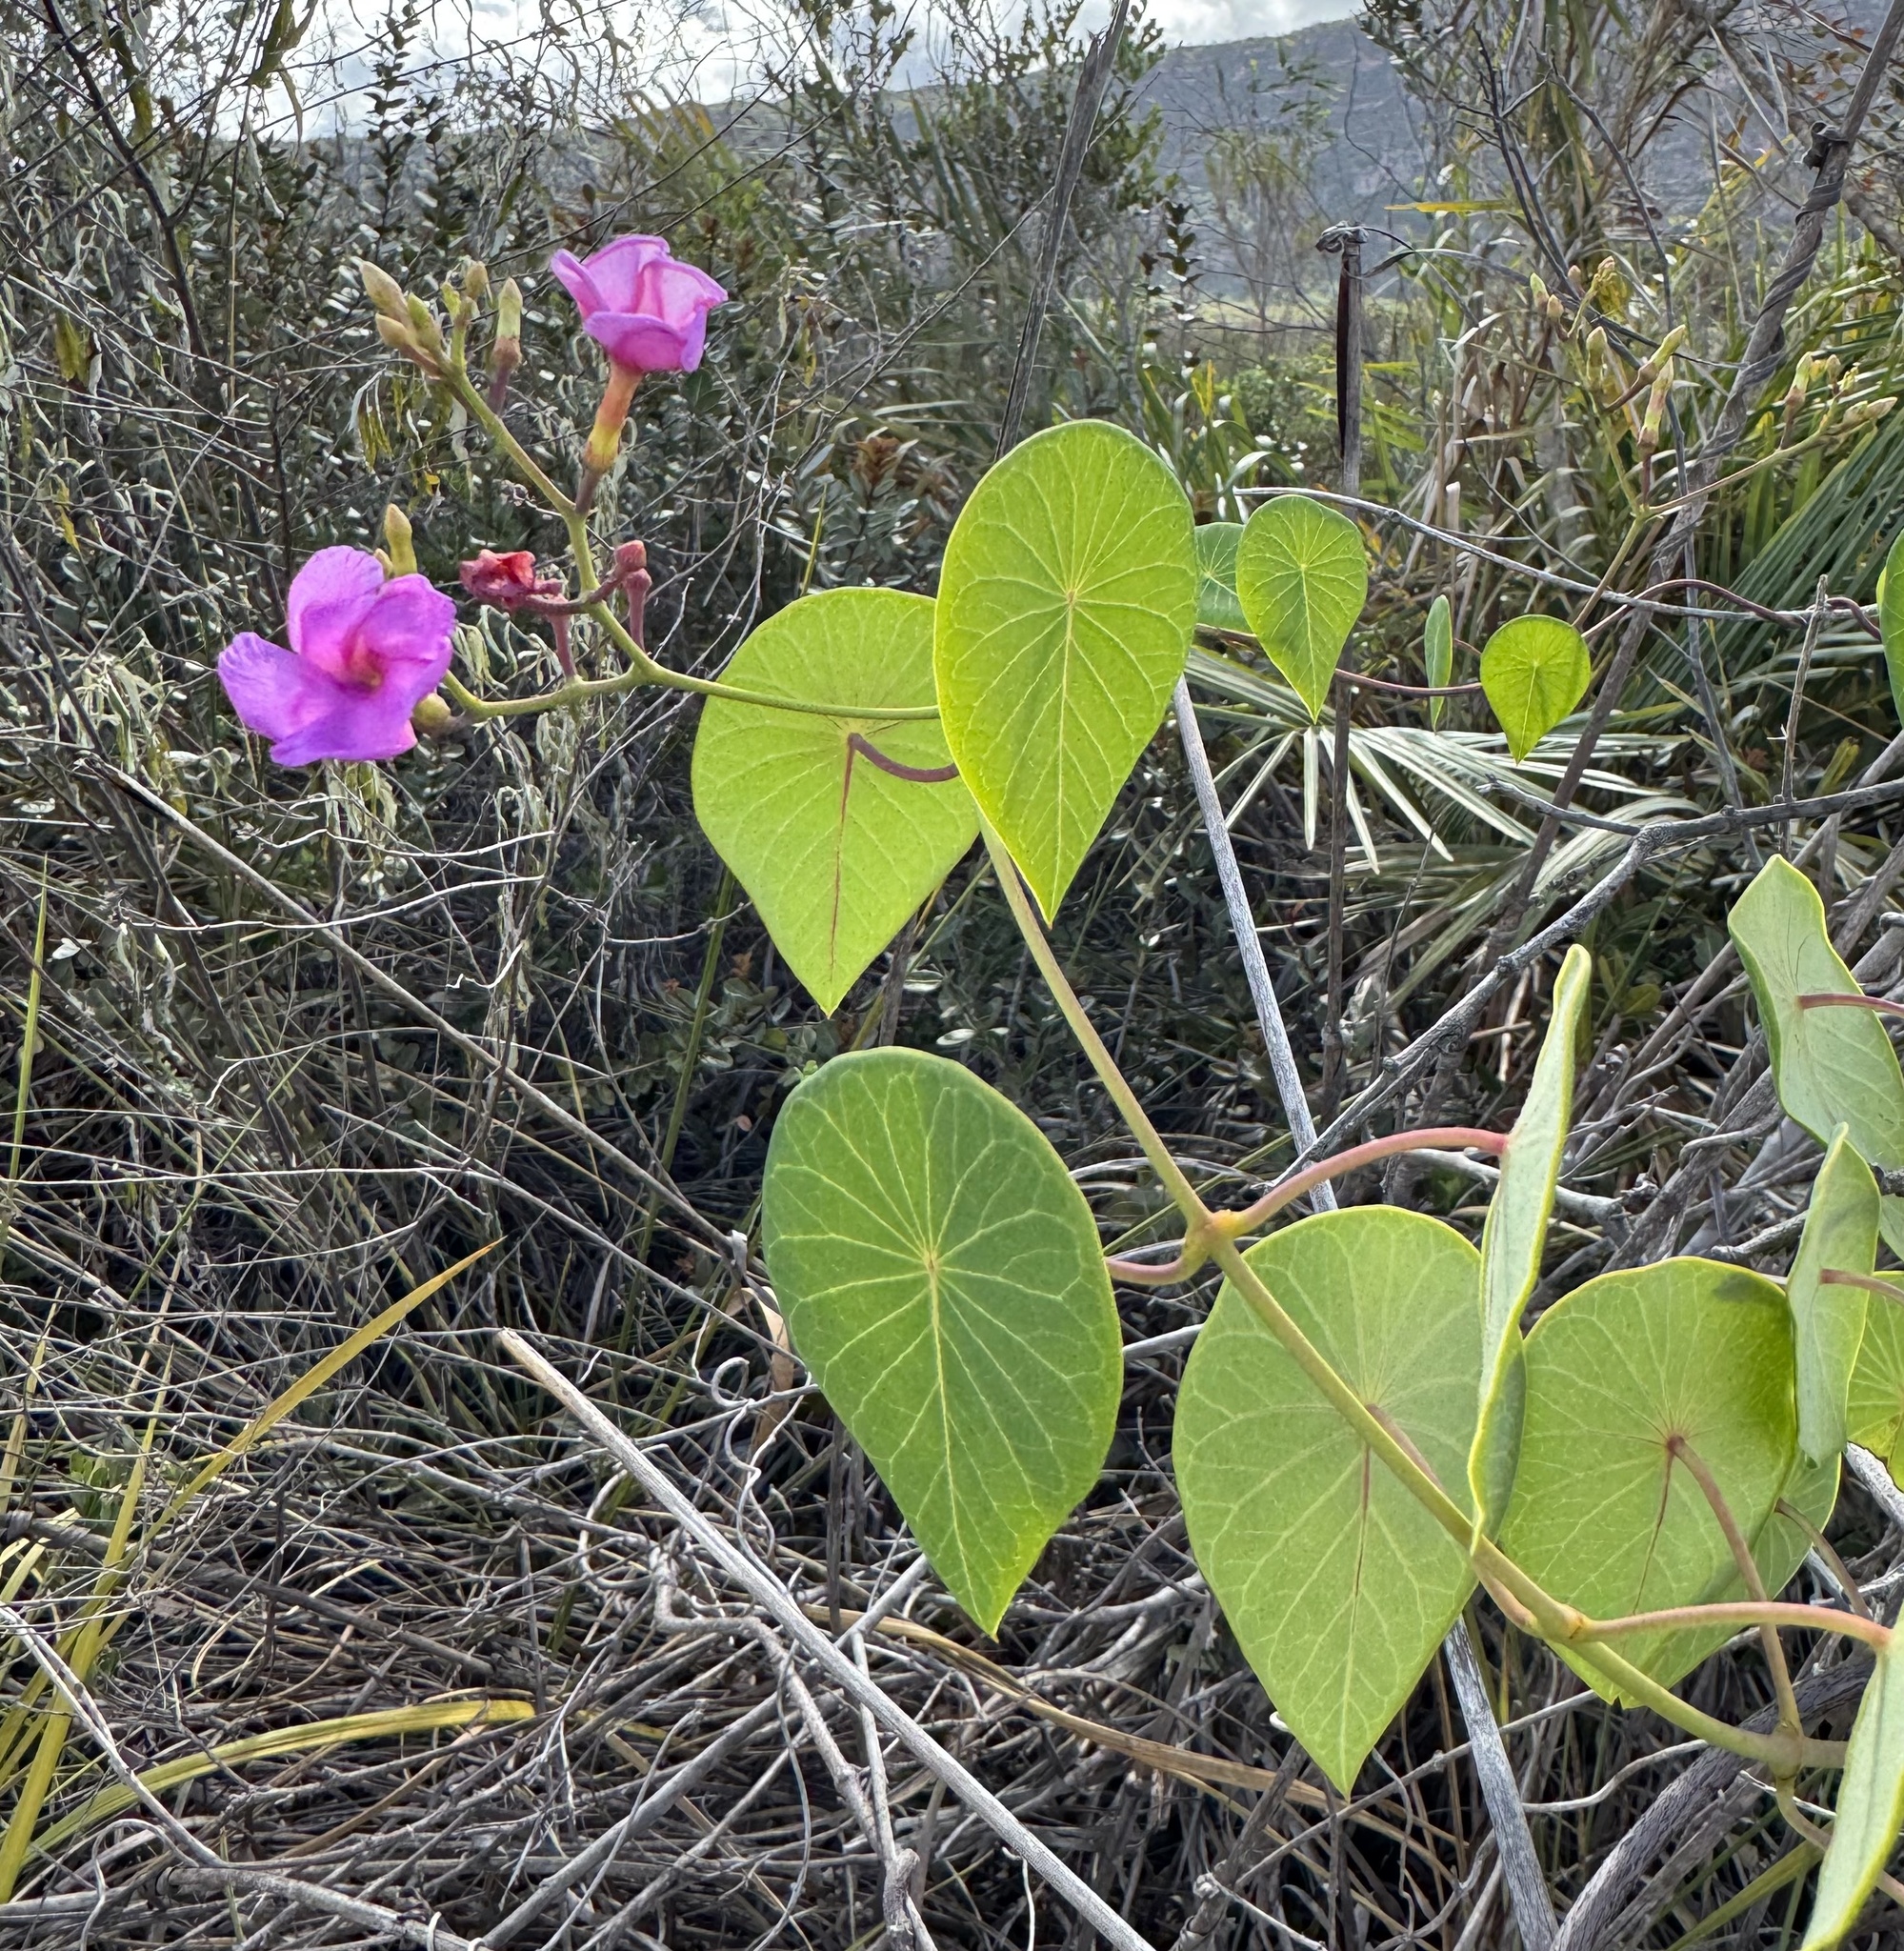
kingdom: Plantae
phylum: Tracheophyta
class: Magnoliopsida
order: Gentianales
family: Apocynaceae
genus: Stipecoma
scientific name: Stipecoma peltigera
